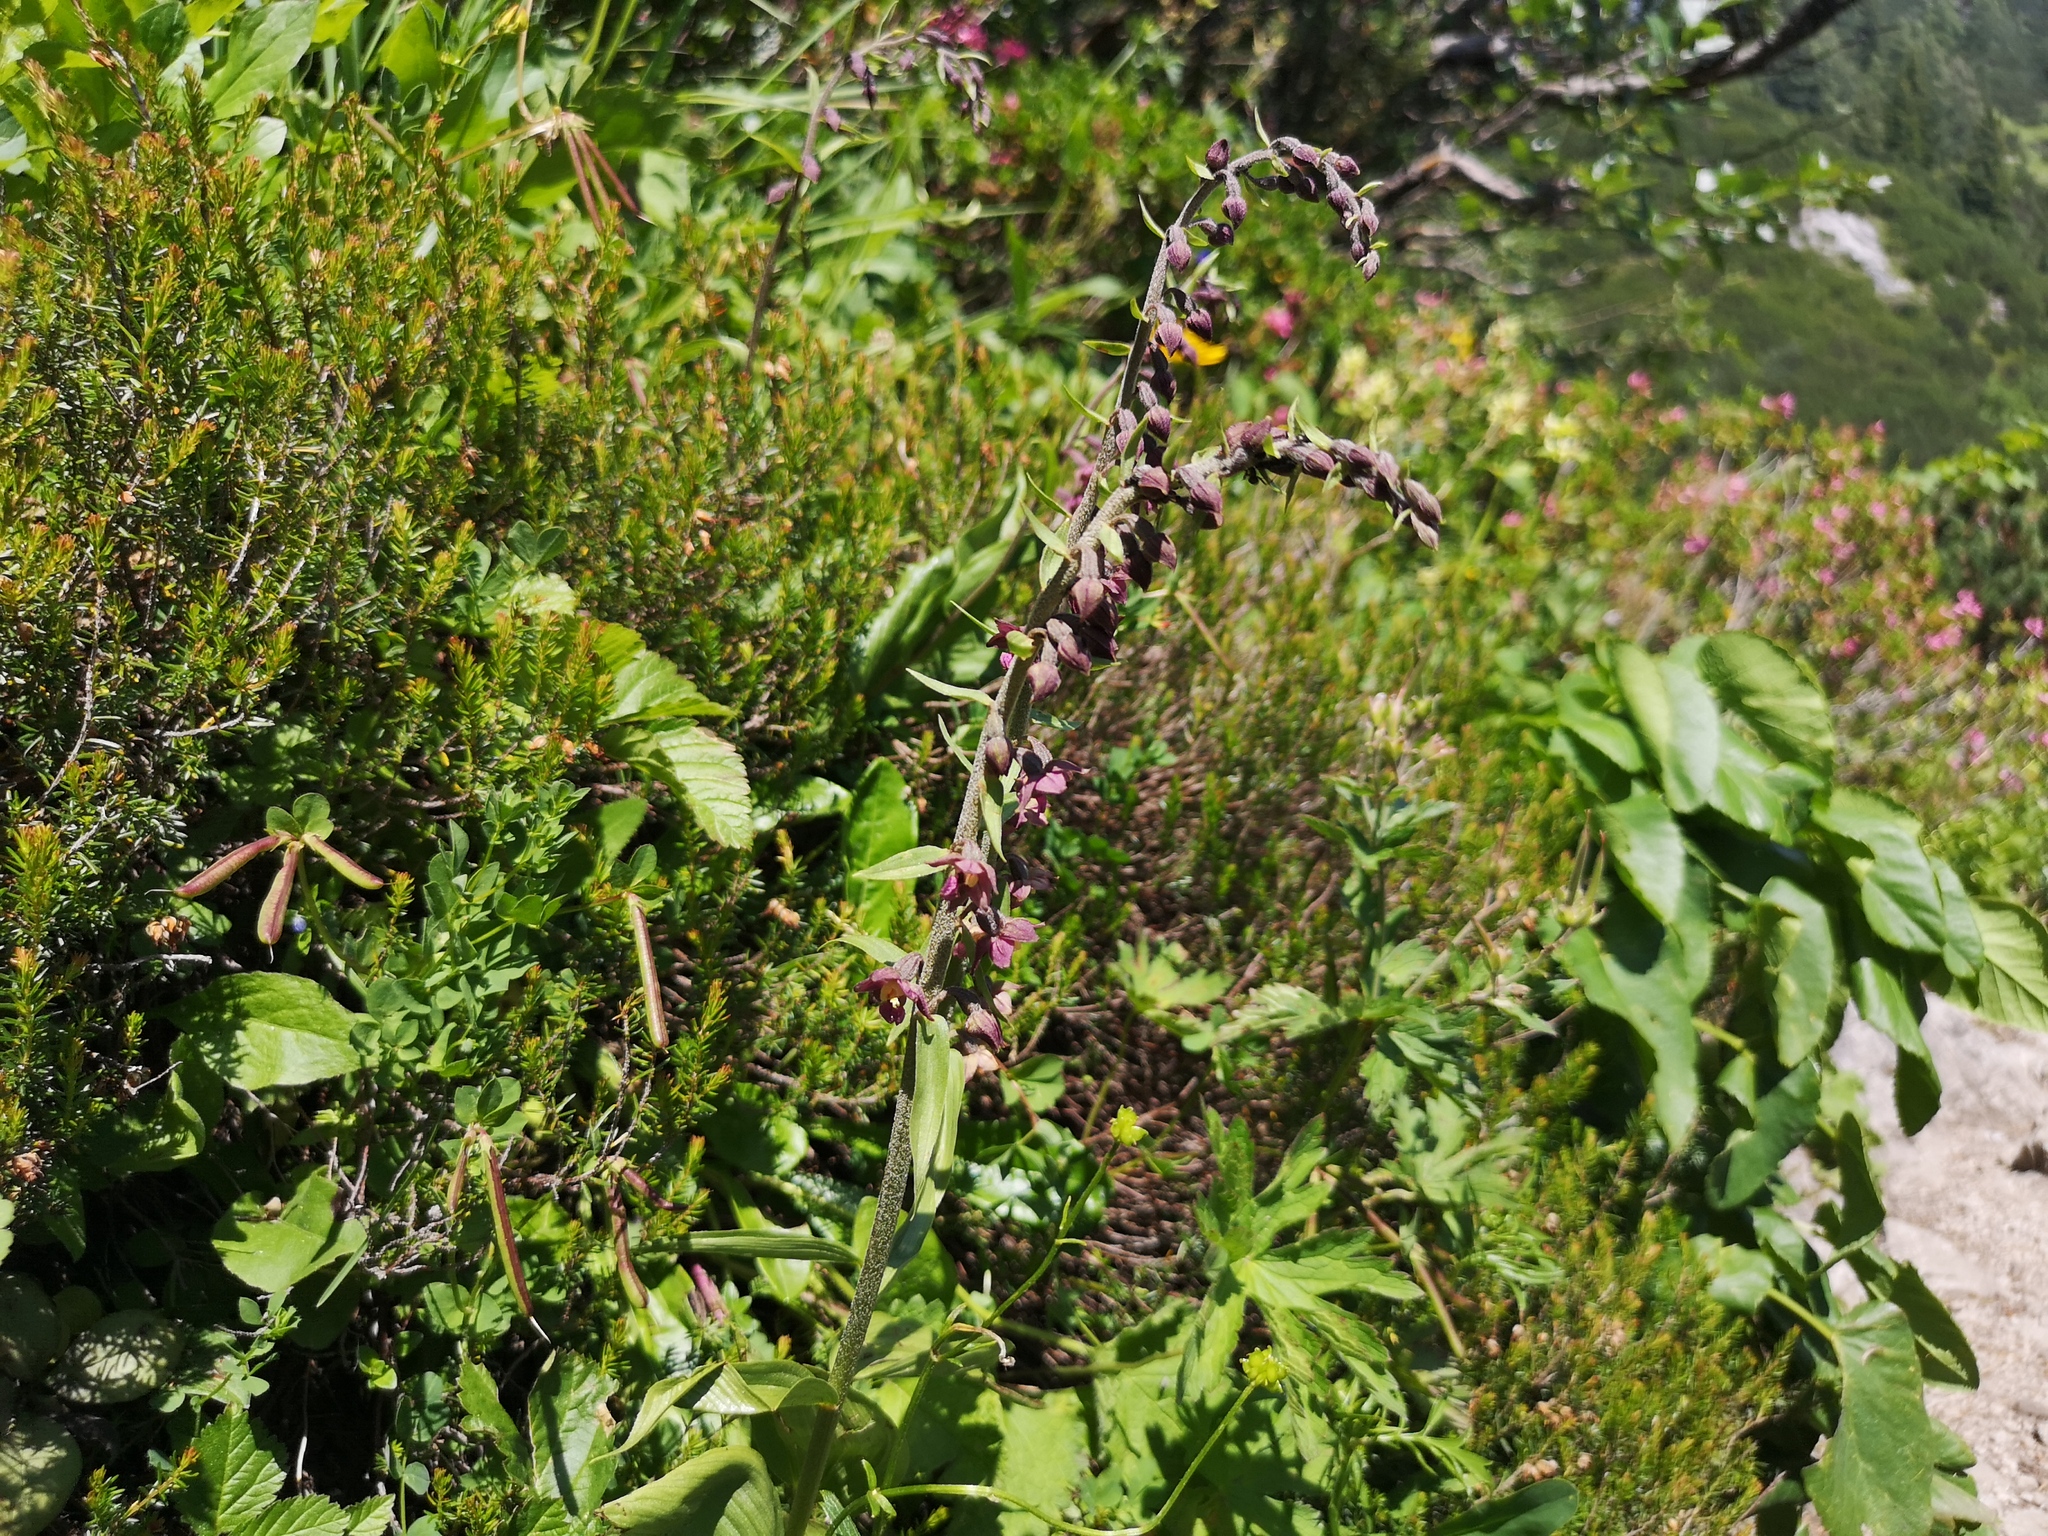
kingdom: Plantae
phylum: Tracheophyta
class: Liliopsida
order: Asparagales
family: Orchidaceae
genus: Epipactis
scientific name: Epipactis atrorubens
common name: Dark-red helleborine
